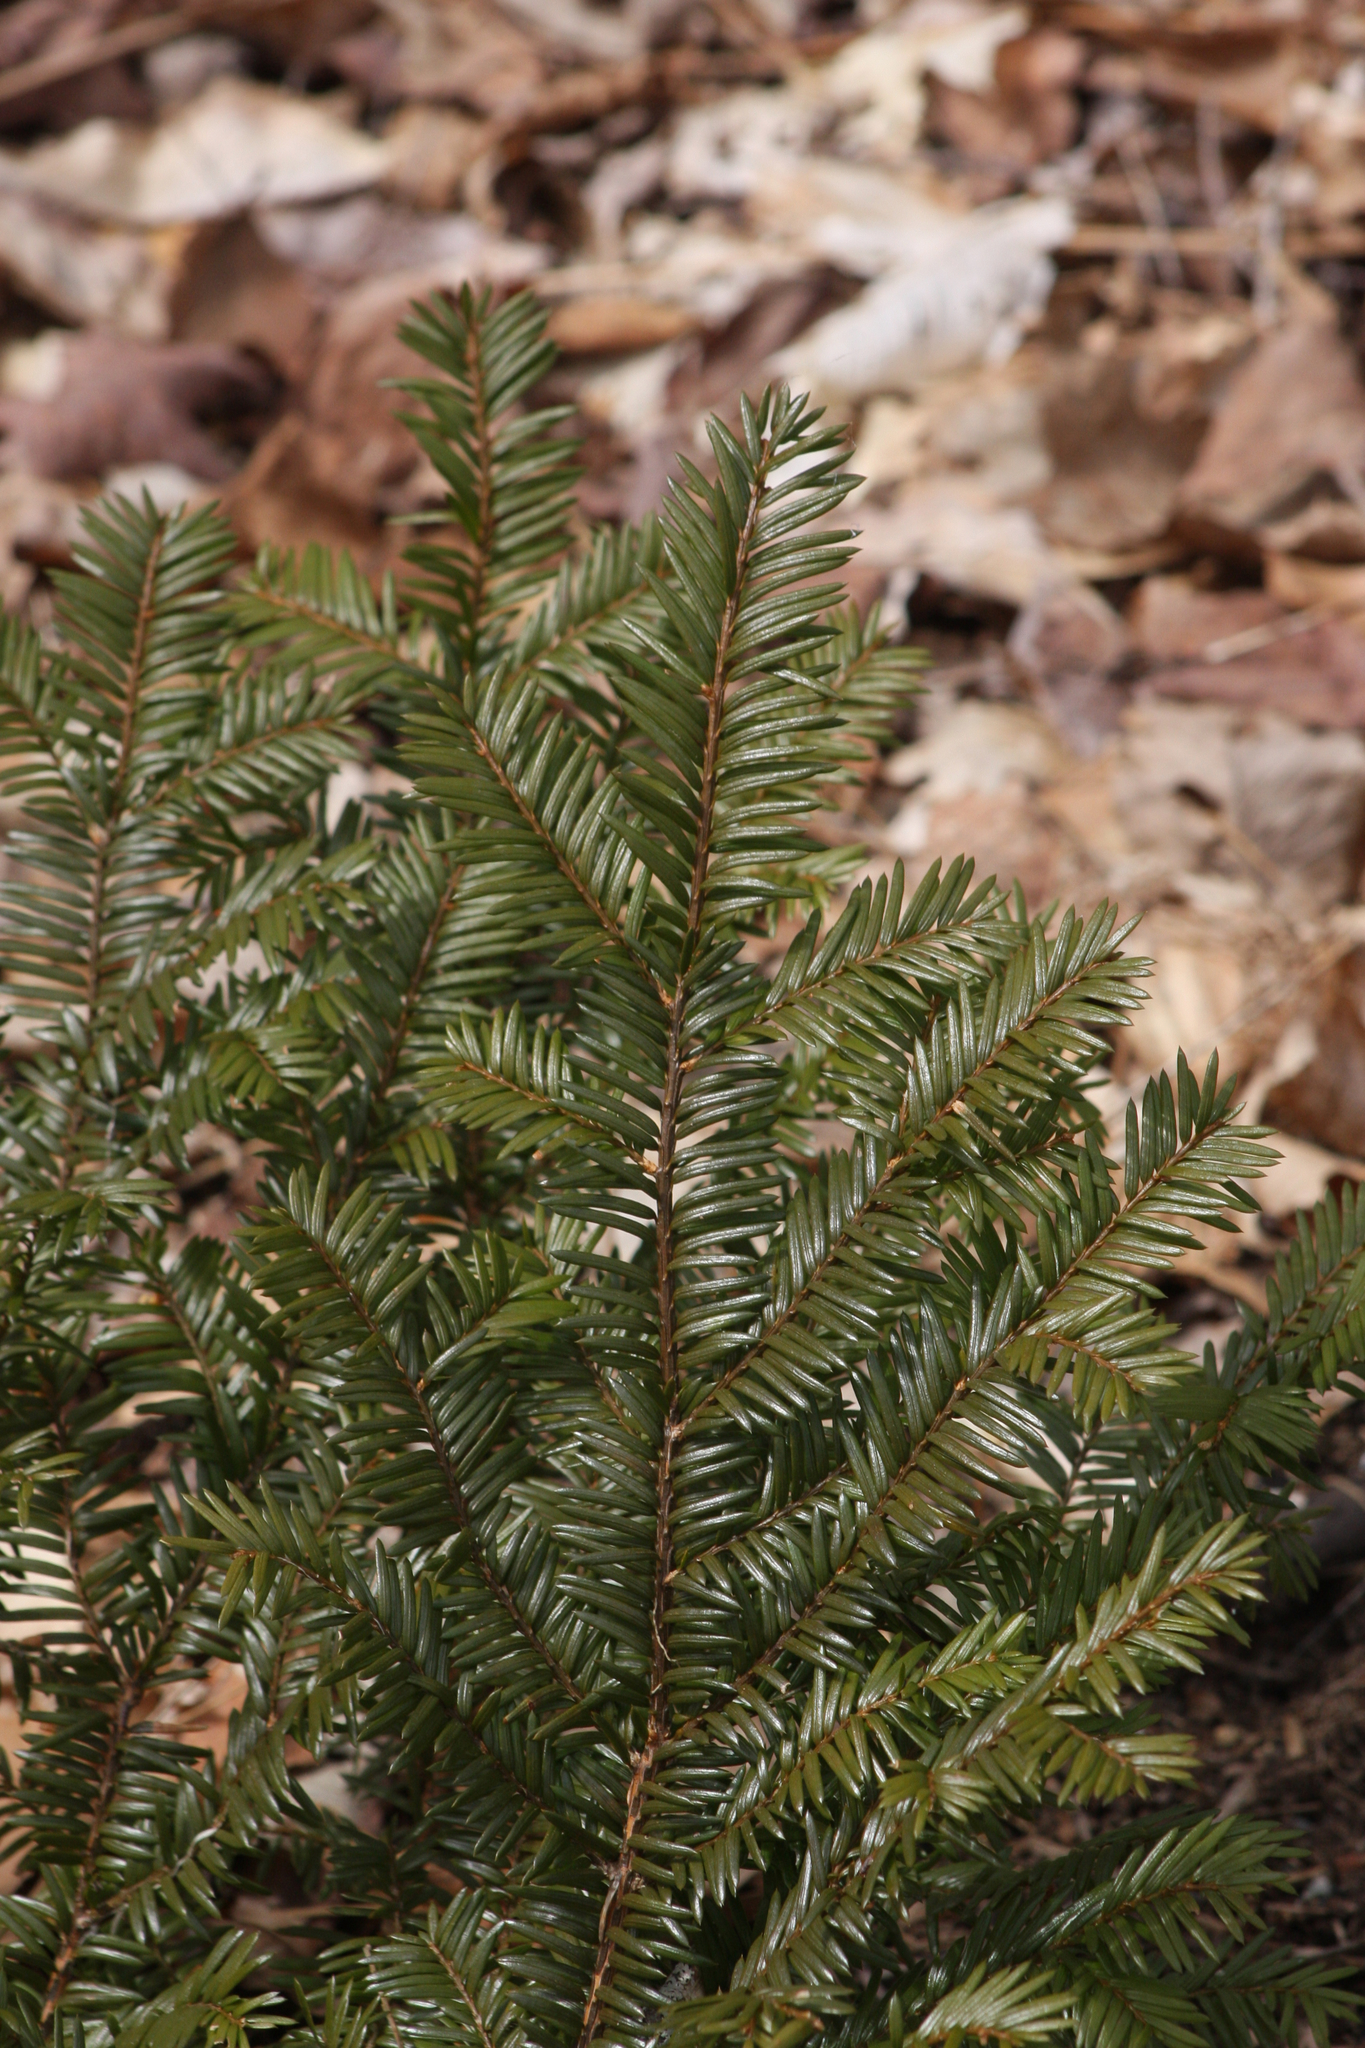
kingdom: Plantae
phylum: Tracheophyta
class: Pinopsida
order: Pinales
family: Taxaceae
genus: Taxus
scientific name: Taxus canadensis
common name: American yew
